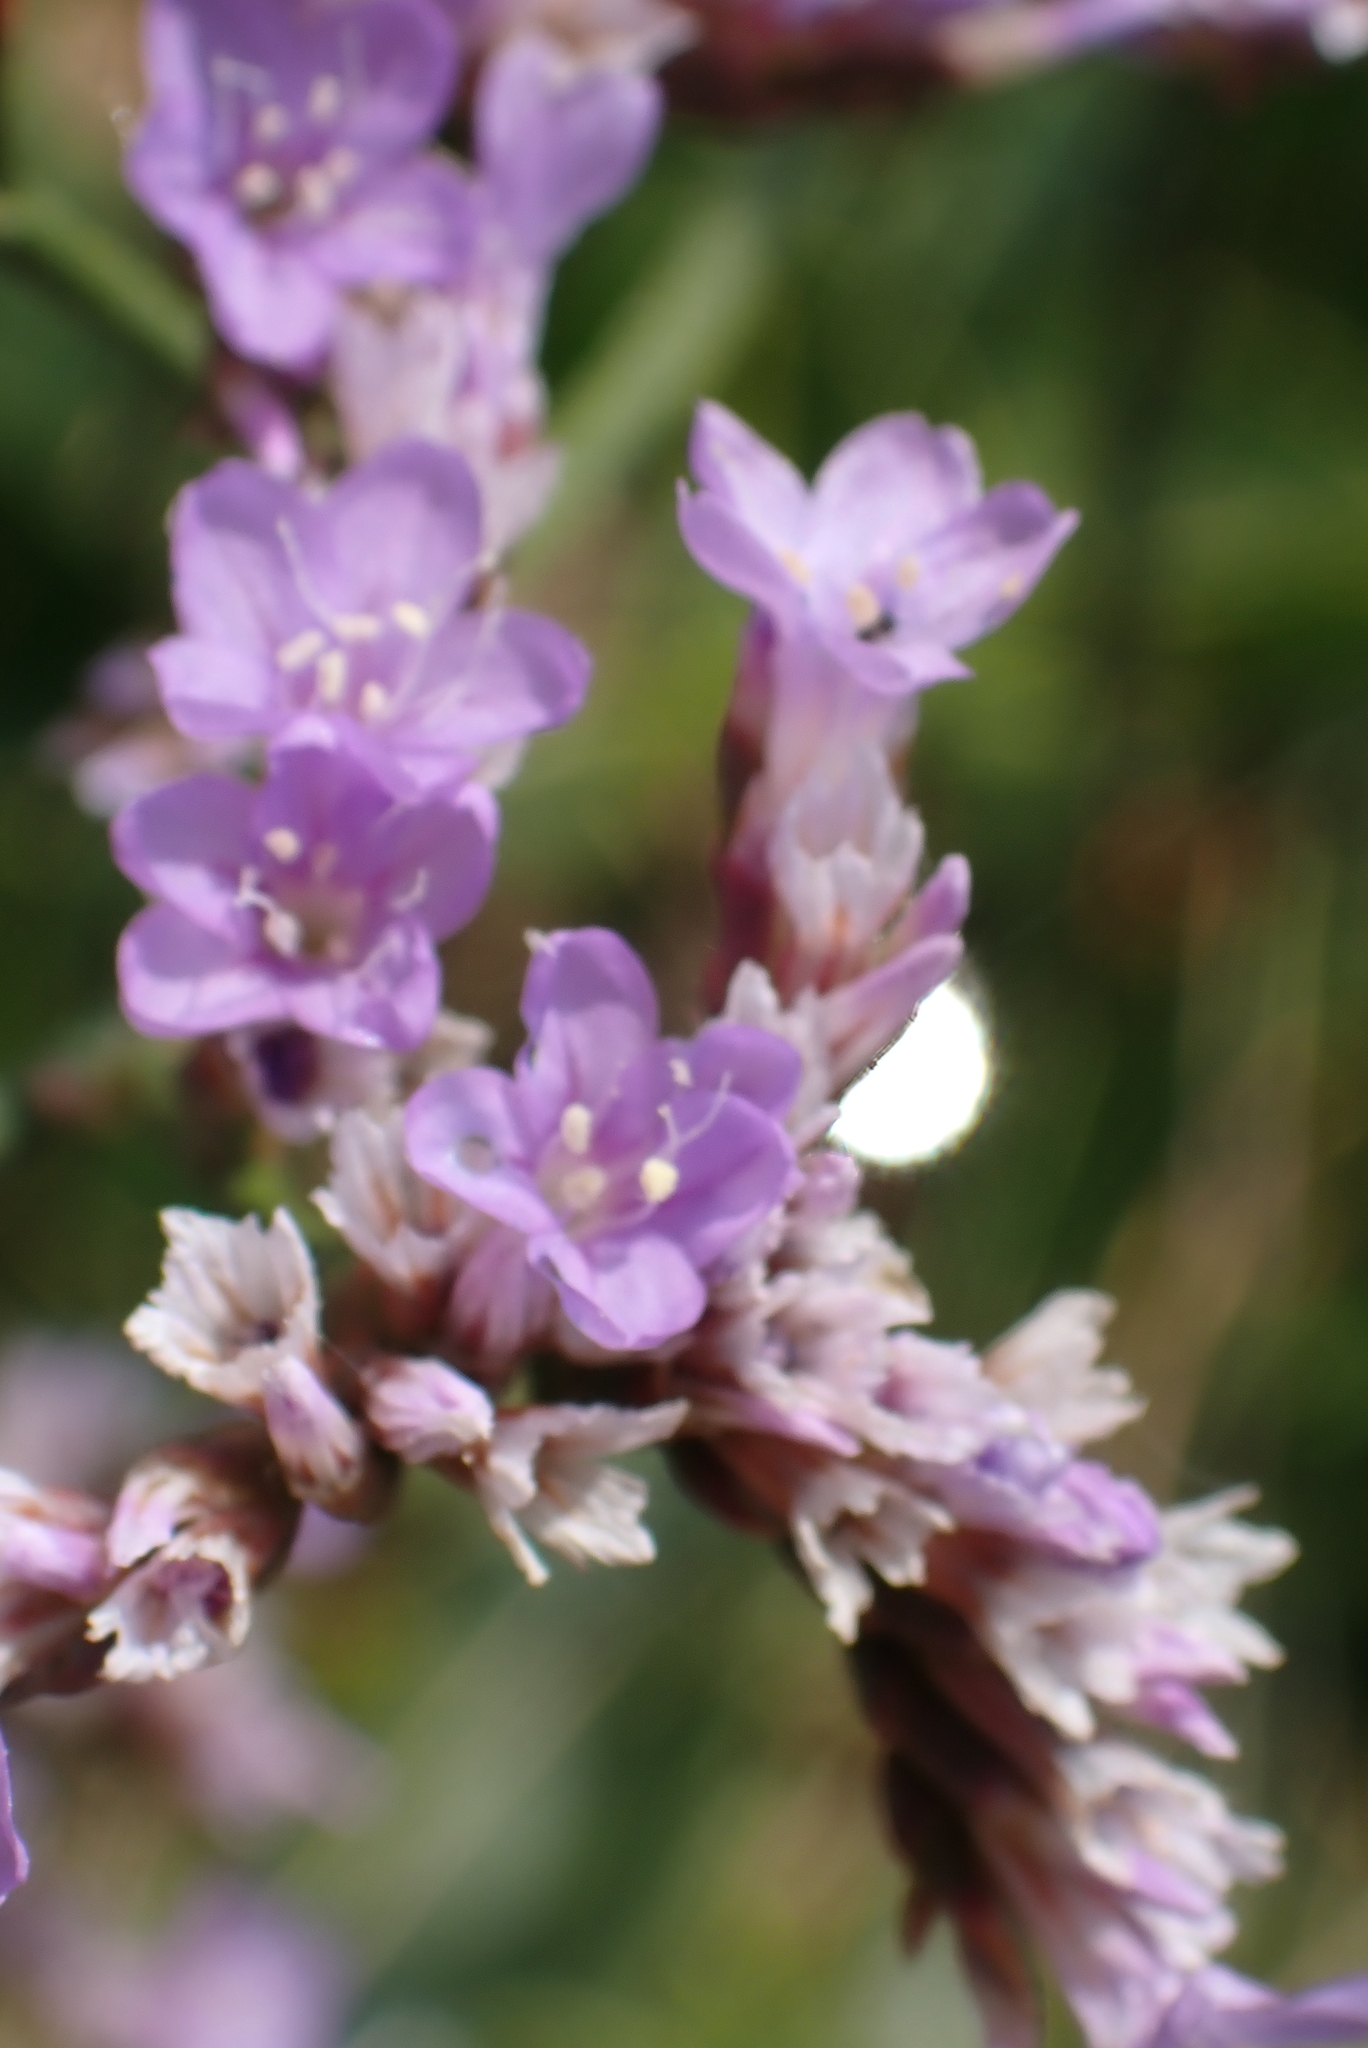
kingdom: Plantae
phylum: Tracheophyta
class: Magnoliopsida
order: Caryophyllales
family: Plumbaginaceae
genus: Limonium
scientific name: Limonium vulgare
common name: Common sea-lavender
